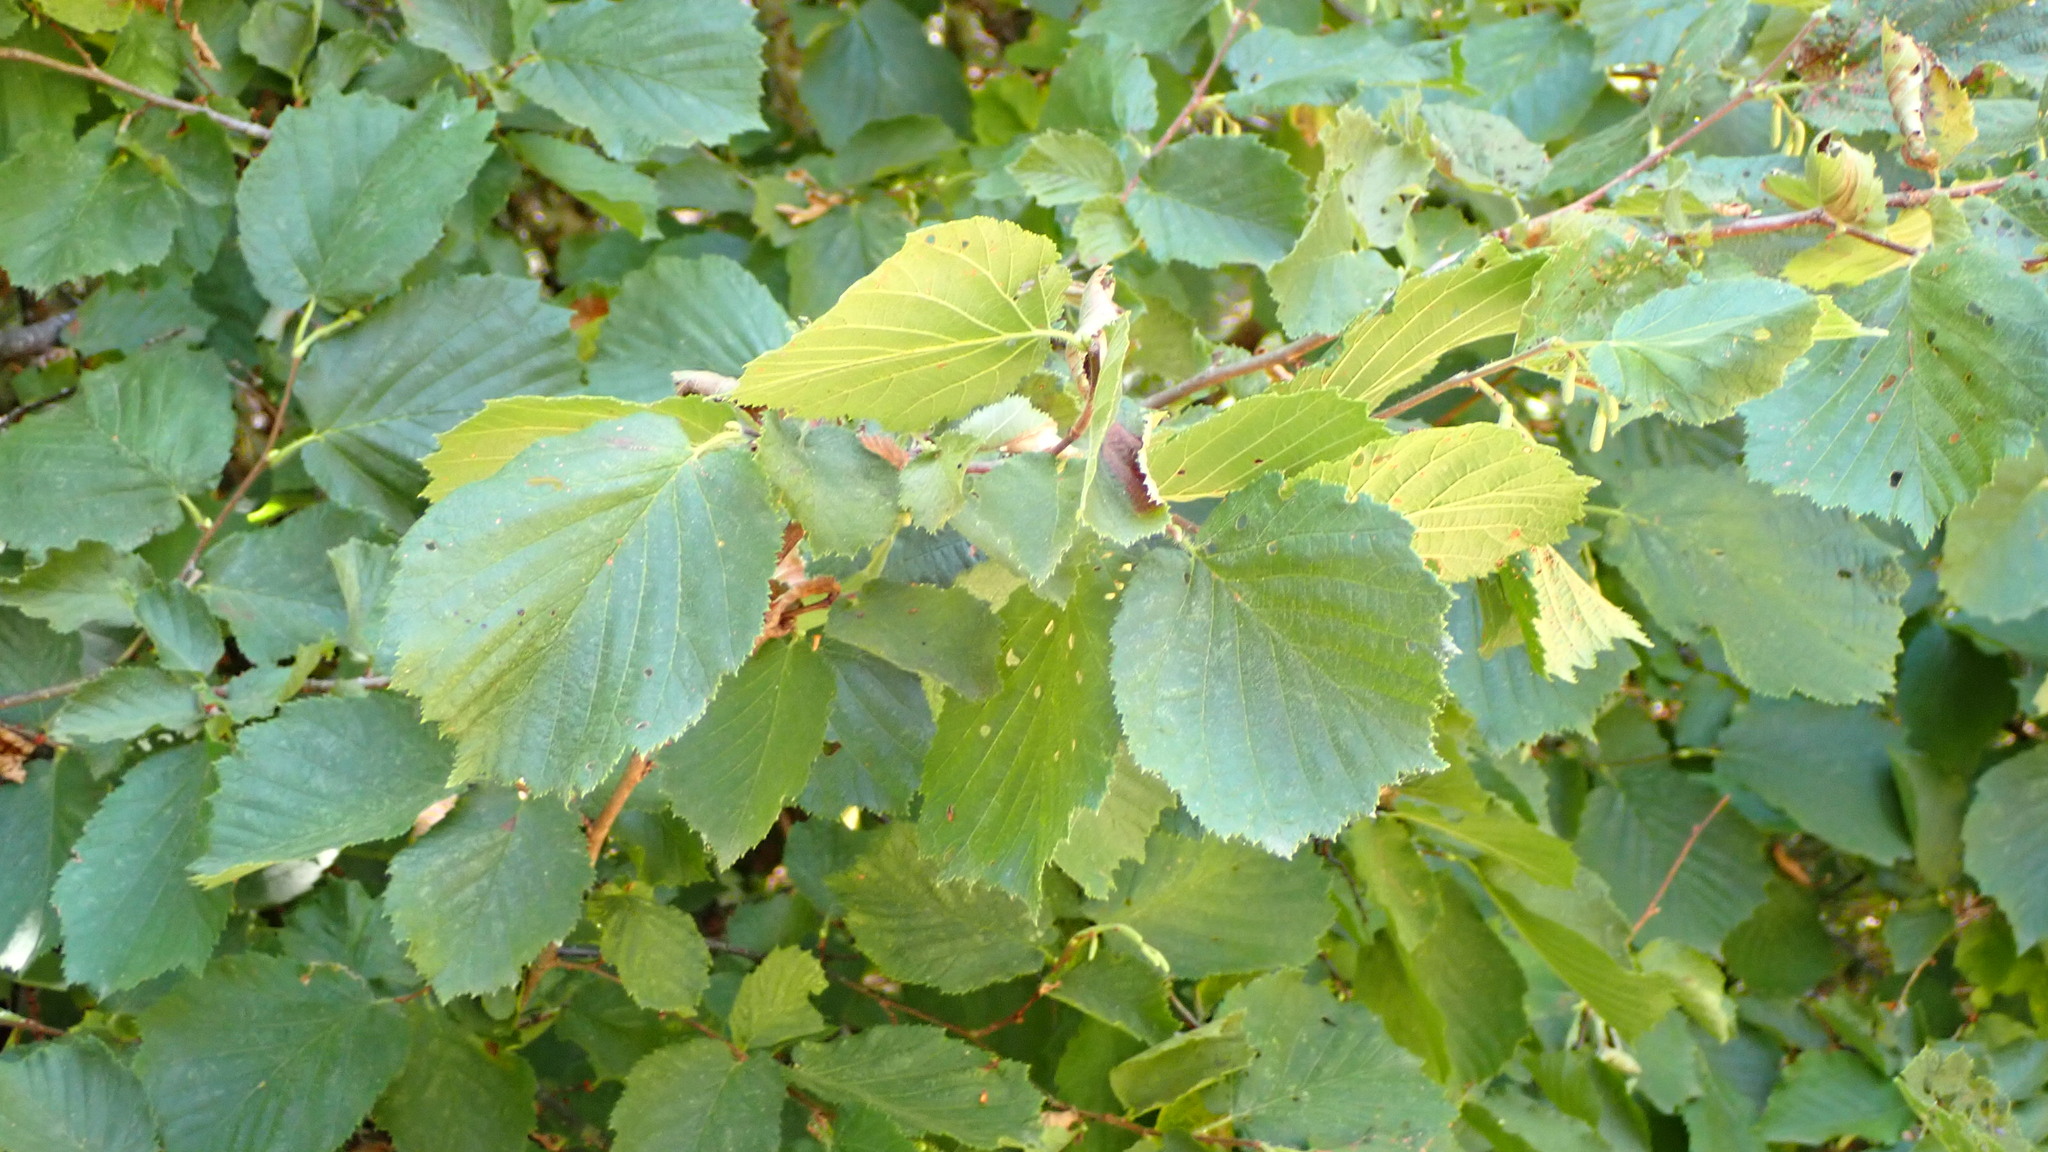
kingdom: Plantae
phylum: Tracheophyta
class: Magnoliopsida
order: Fagales
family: Betulaceae
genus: Corylus
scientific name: Corylus avellana
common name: European hazel
